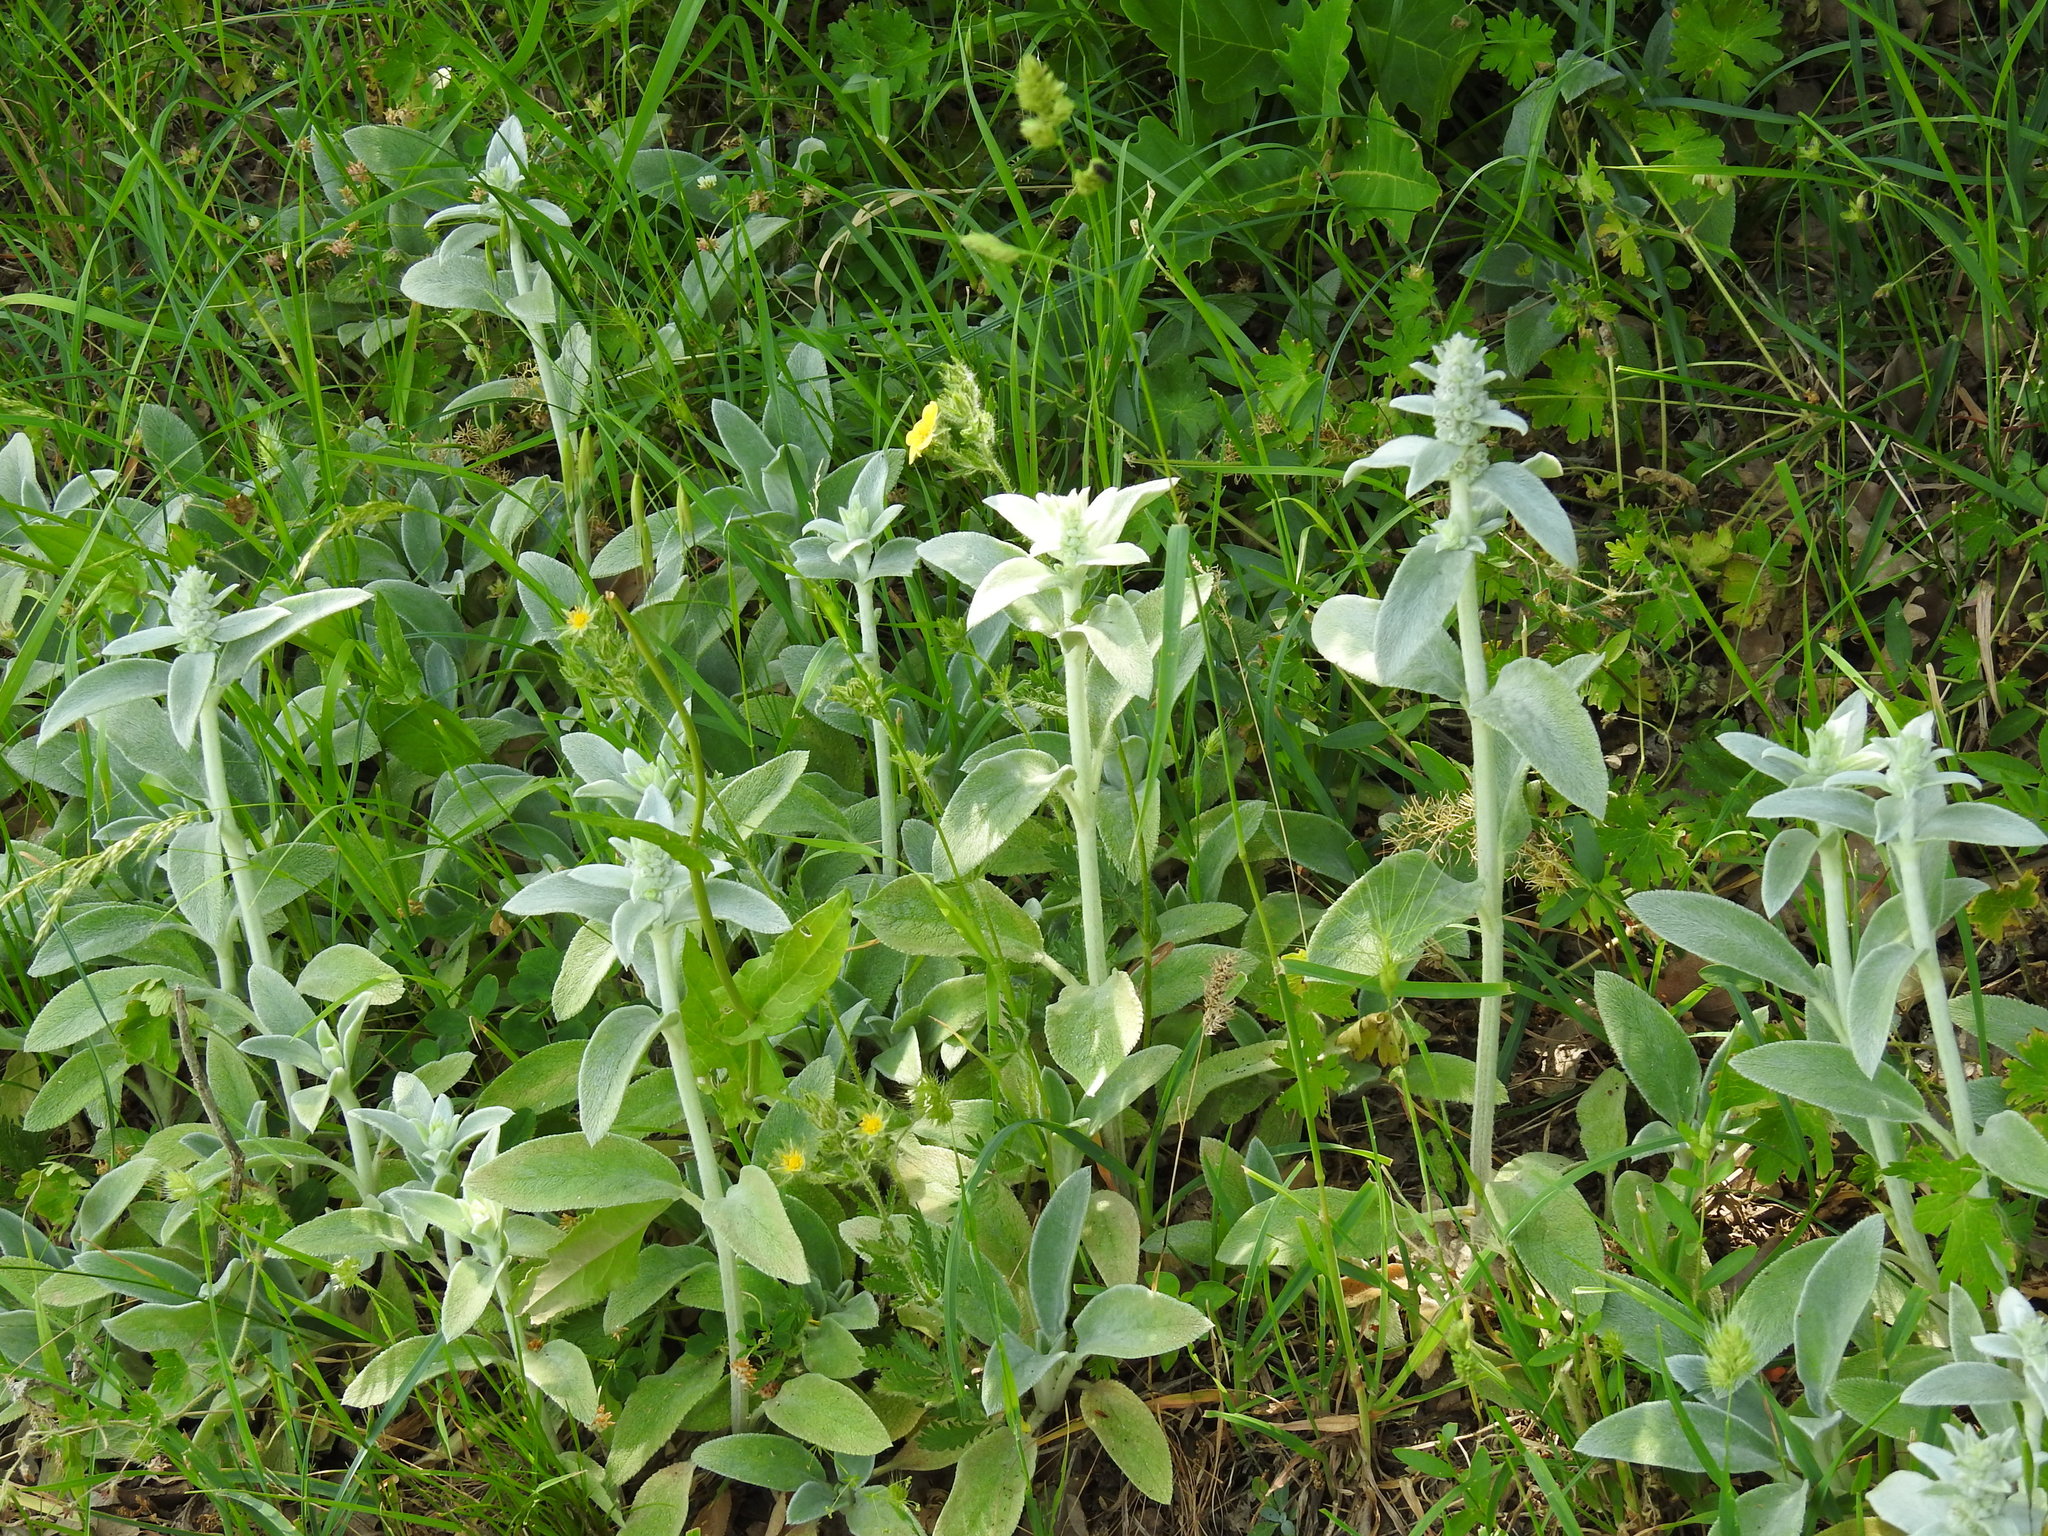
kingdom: Plantae
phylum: Tracheophyta
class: Magnoliopsida
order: Lamiales
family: Lamiaceae
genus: Stachys
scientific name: Stachys byzantina
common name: Lamb's-ear
